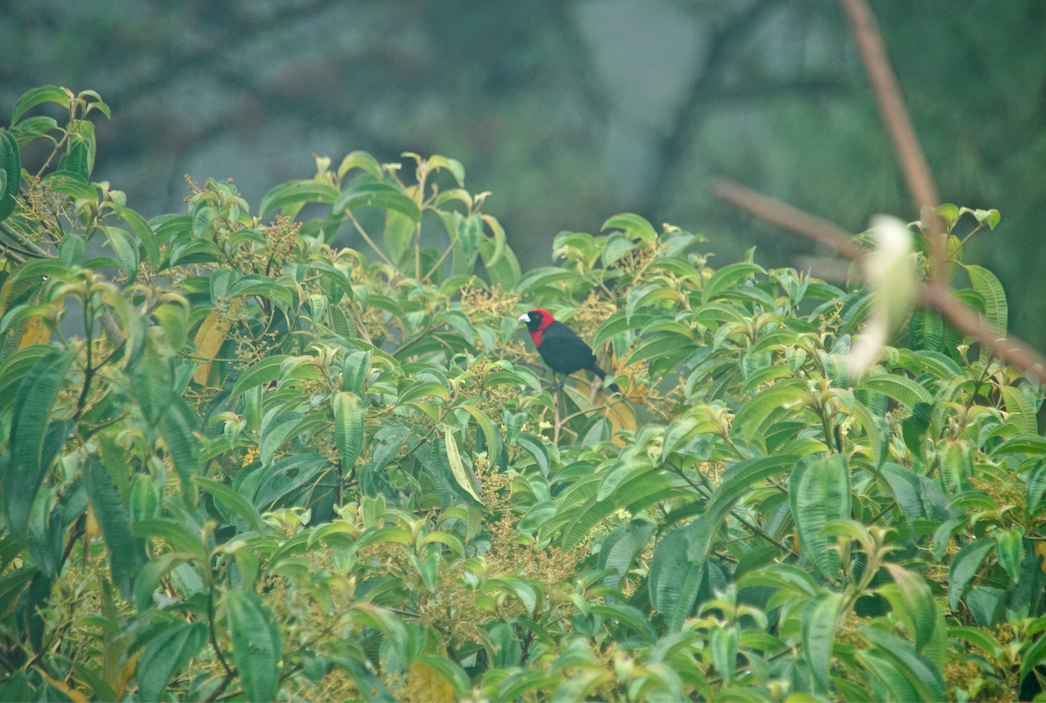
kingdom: Animalia
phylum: Chordata
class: Aves
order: Passeriformes
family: Thraupidae
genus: Ramphocelus
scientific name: Ramphocelus sanguinolentus
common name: Crimson-collared tanager
